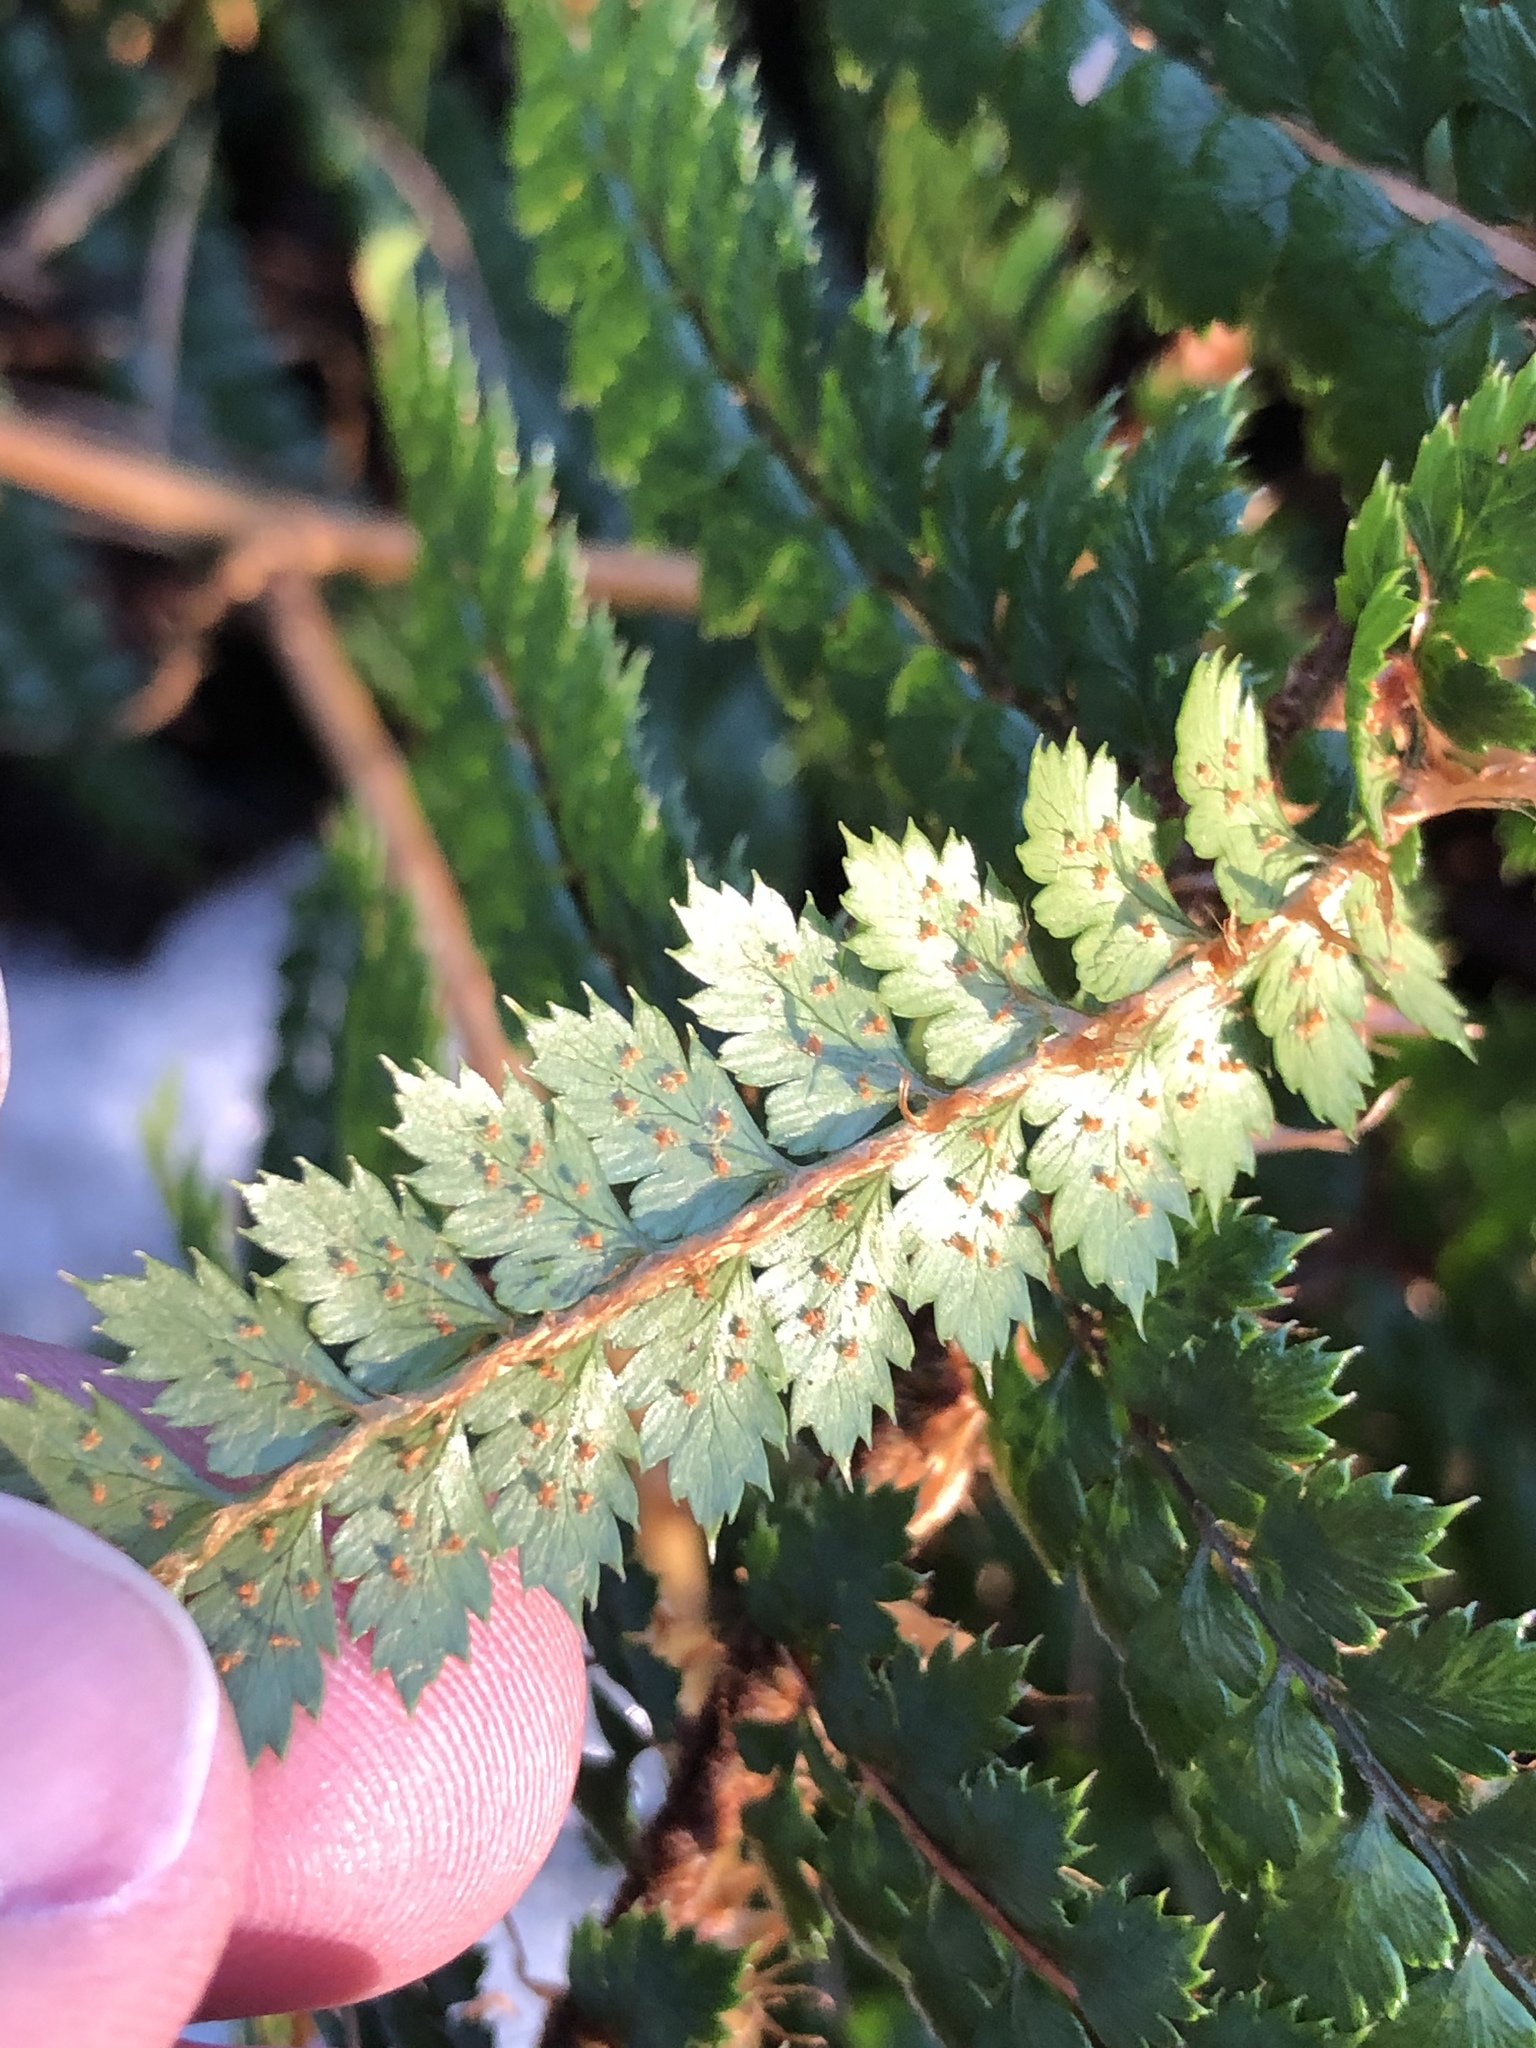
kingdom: Plantae
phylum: Tracheophyta
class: Polypodiopsida
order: Polypodiales
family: Dryopteridaceae
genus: Polystichum
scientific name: Polystichum vestitum
